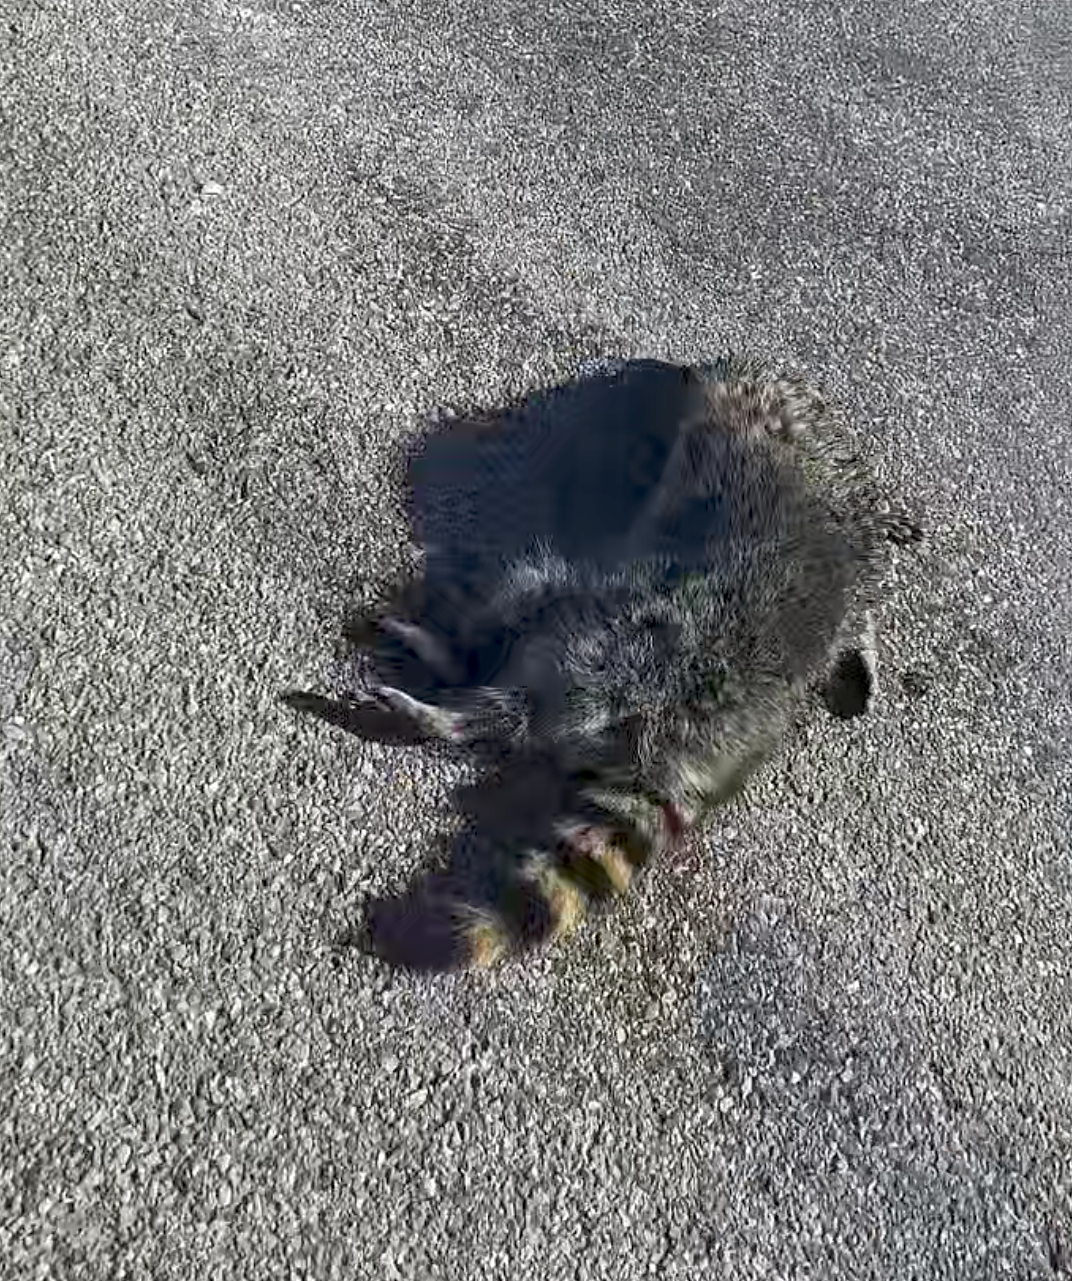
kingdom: Animalia
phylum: Chordata
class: Mammalia
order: Carnivora
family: Procyonidae
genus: Procyon
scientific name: Procyon lotor
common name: Raccoon
